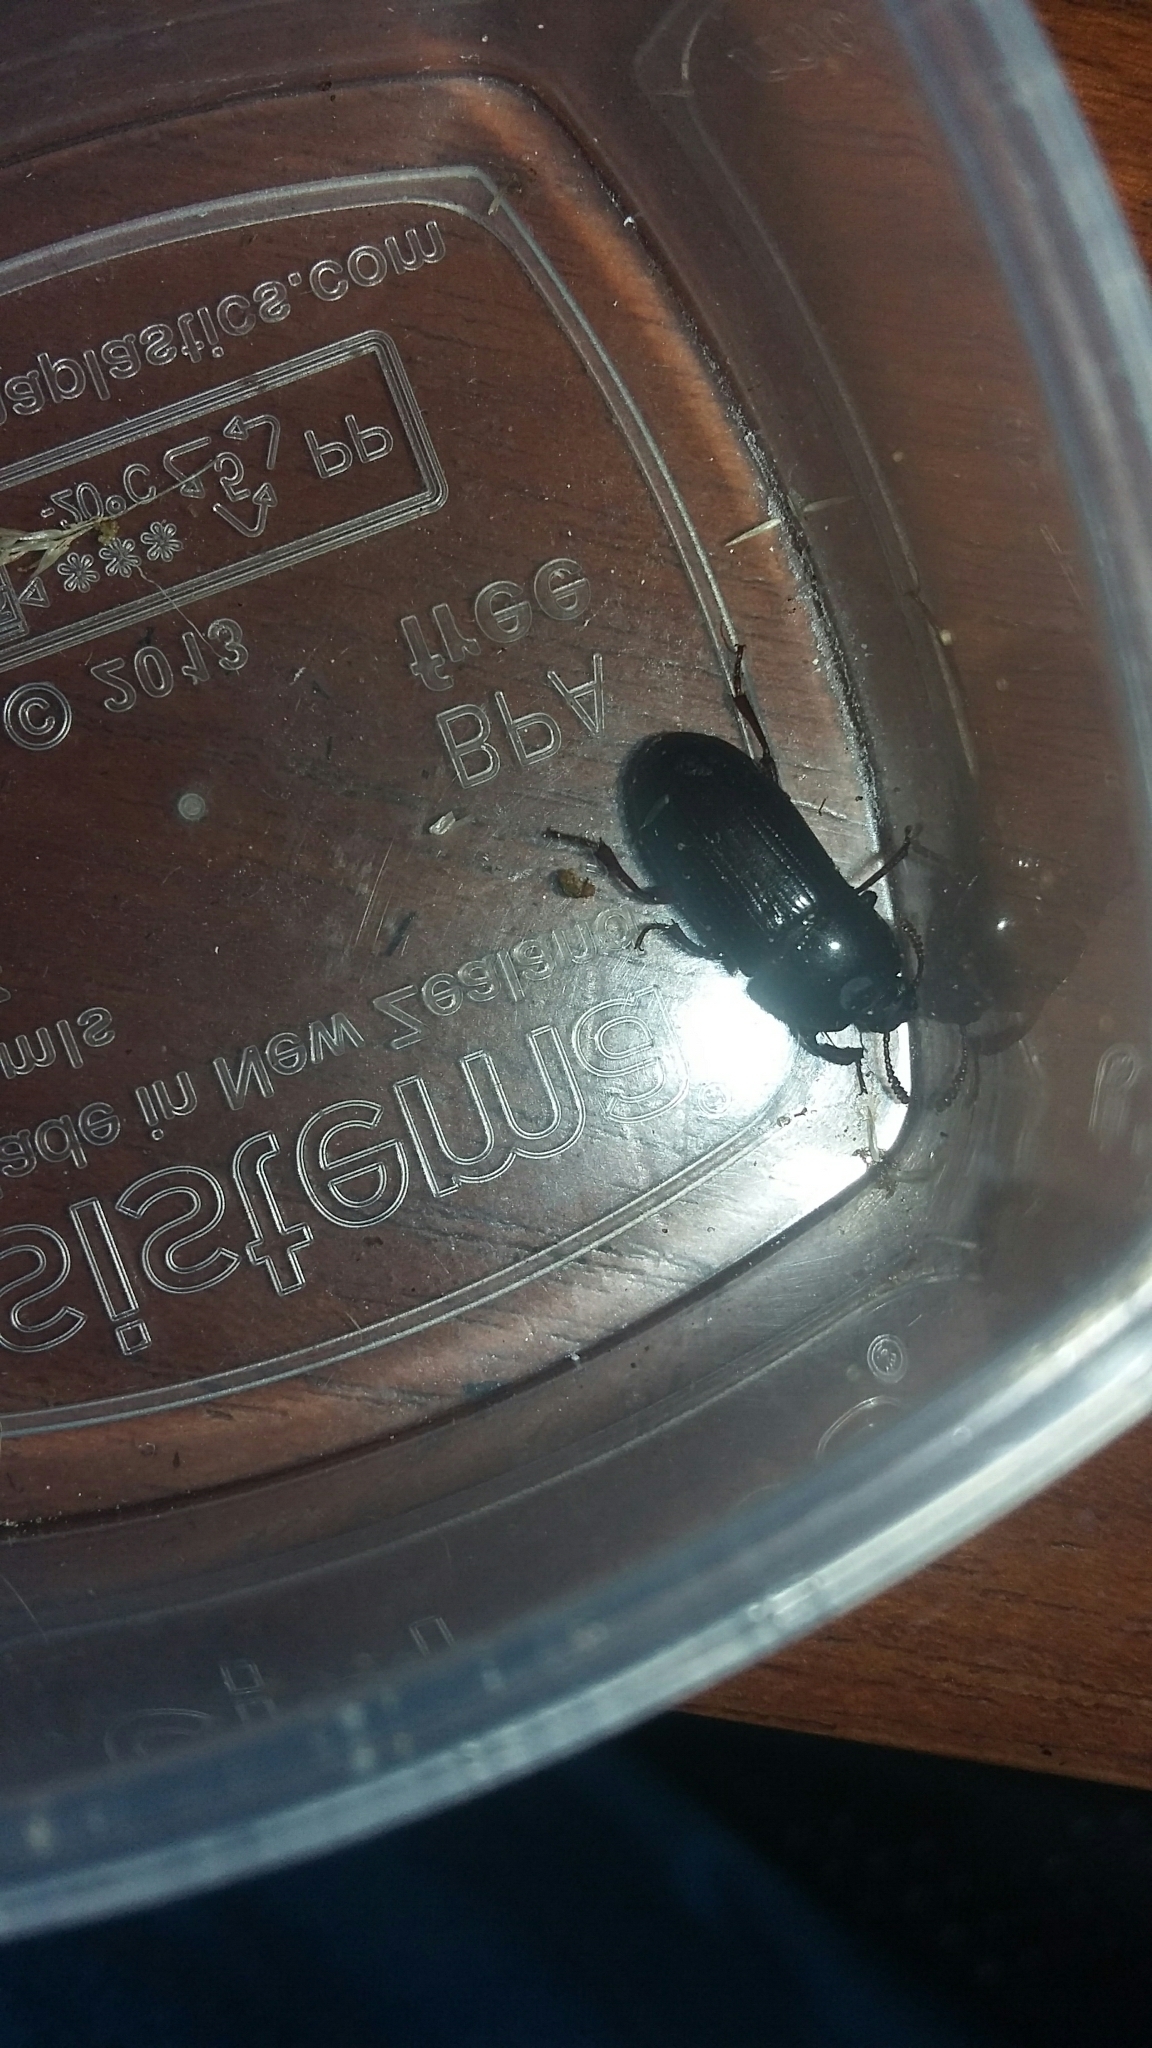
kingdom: Animalia
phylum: Arthropoda
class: Insecta
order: Coleoptera
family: Tenebrionidae
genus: Uloma
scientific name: Uloma tenebrionoides
